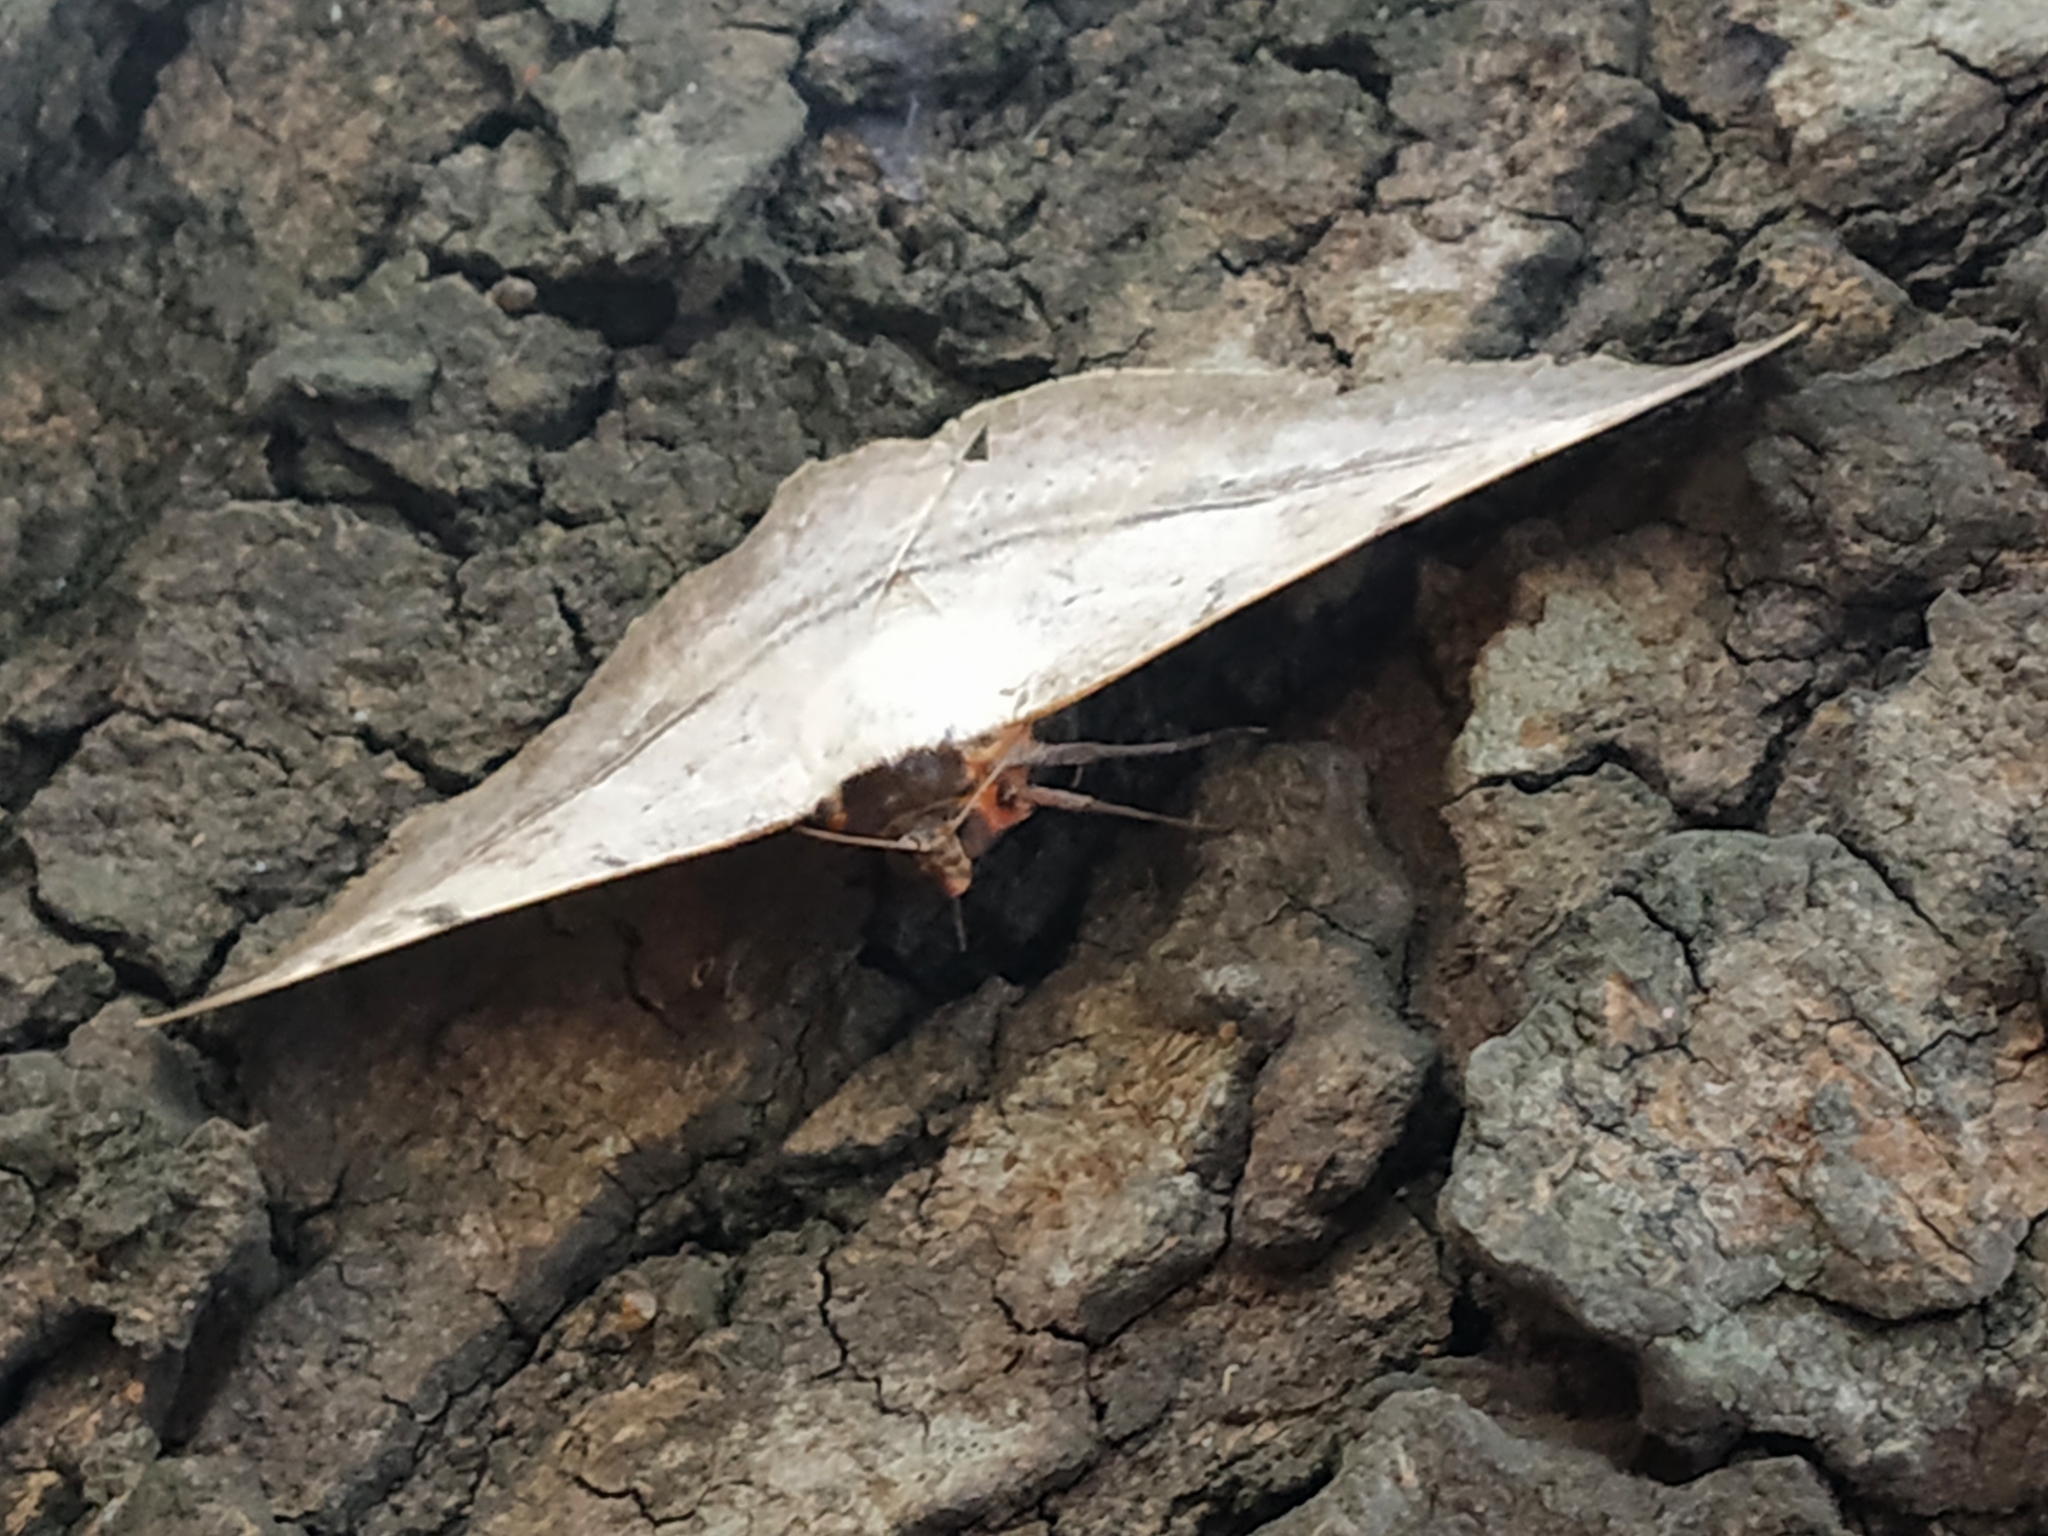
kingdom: Animalia
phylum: Arthropoda
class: Insecta
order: Lepidoptera
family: Erebidae
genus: Hypopyra
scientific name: Hypopyra vespertilio
